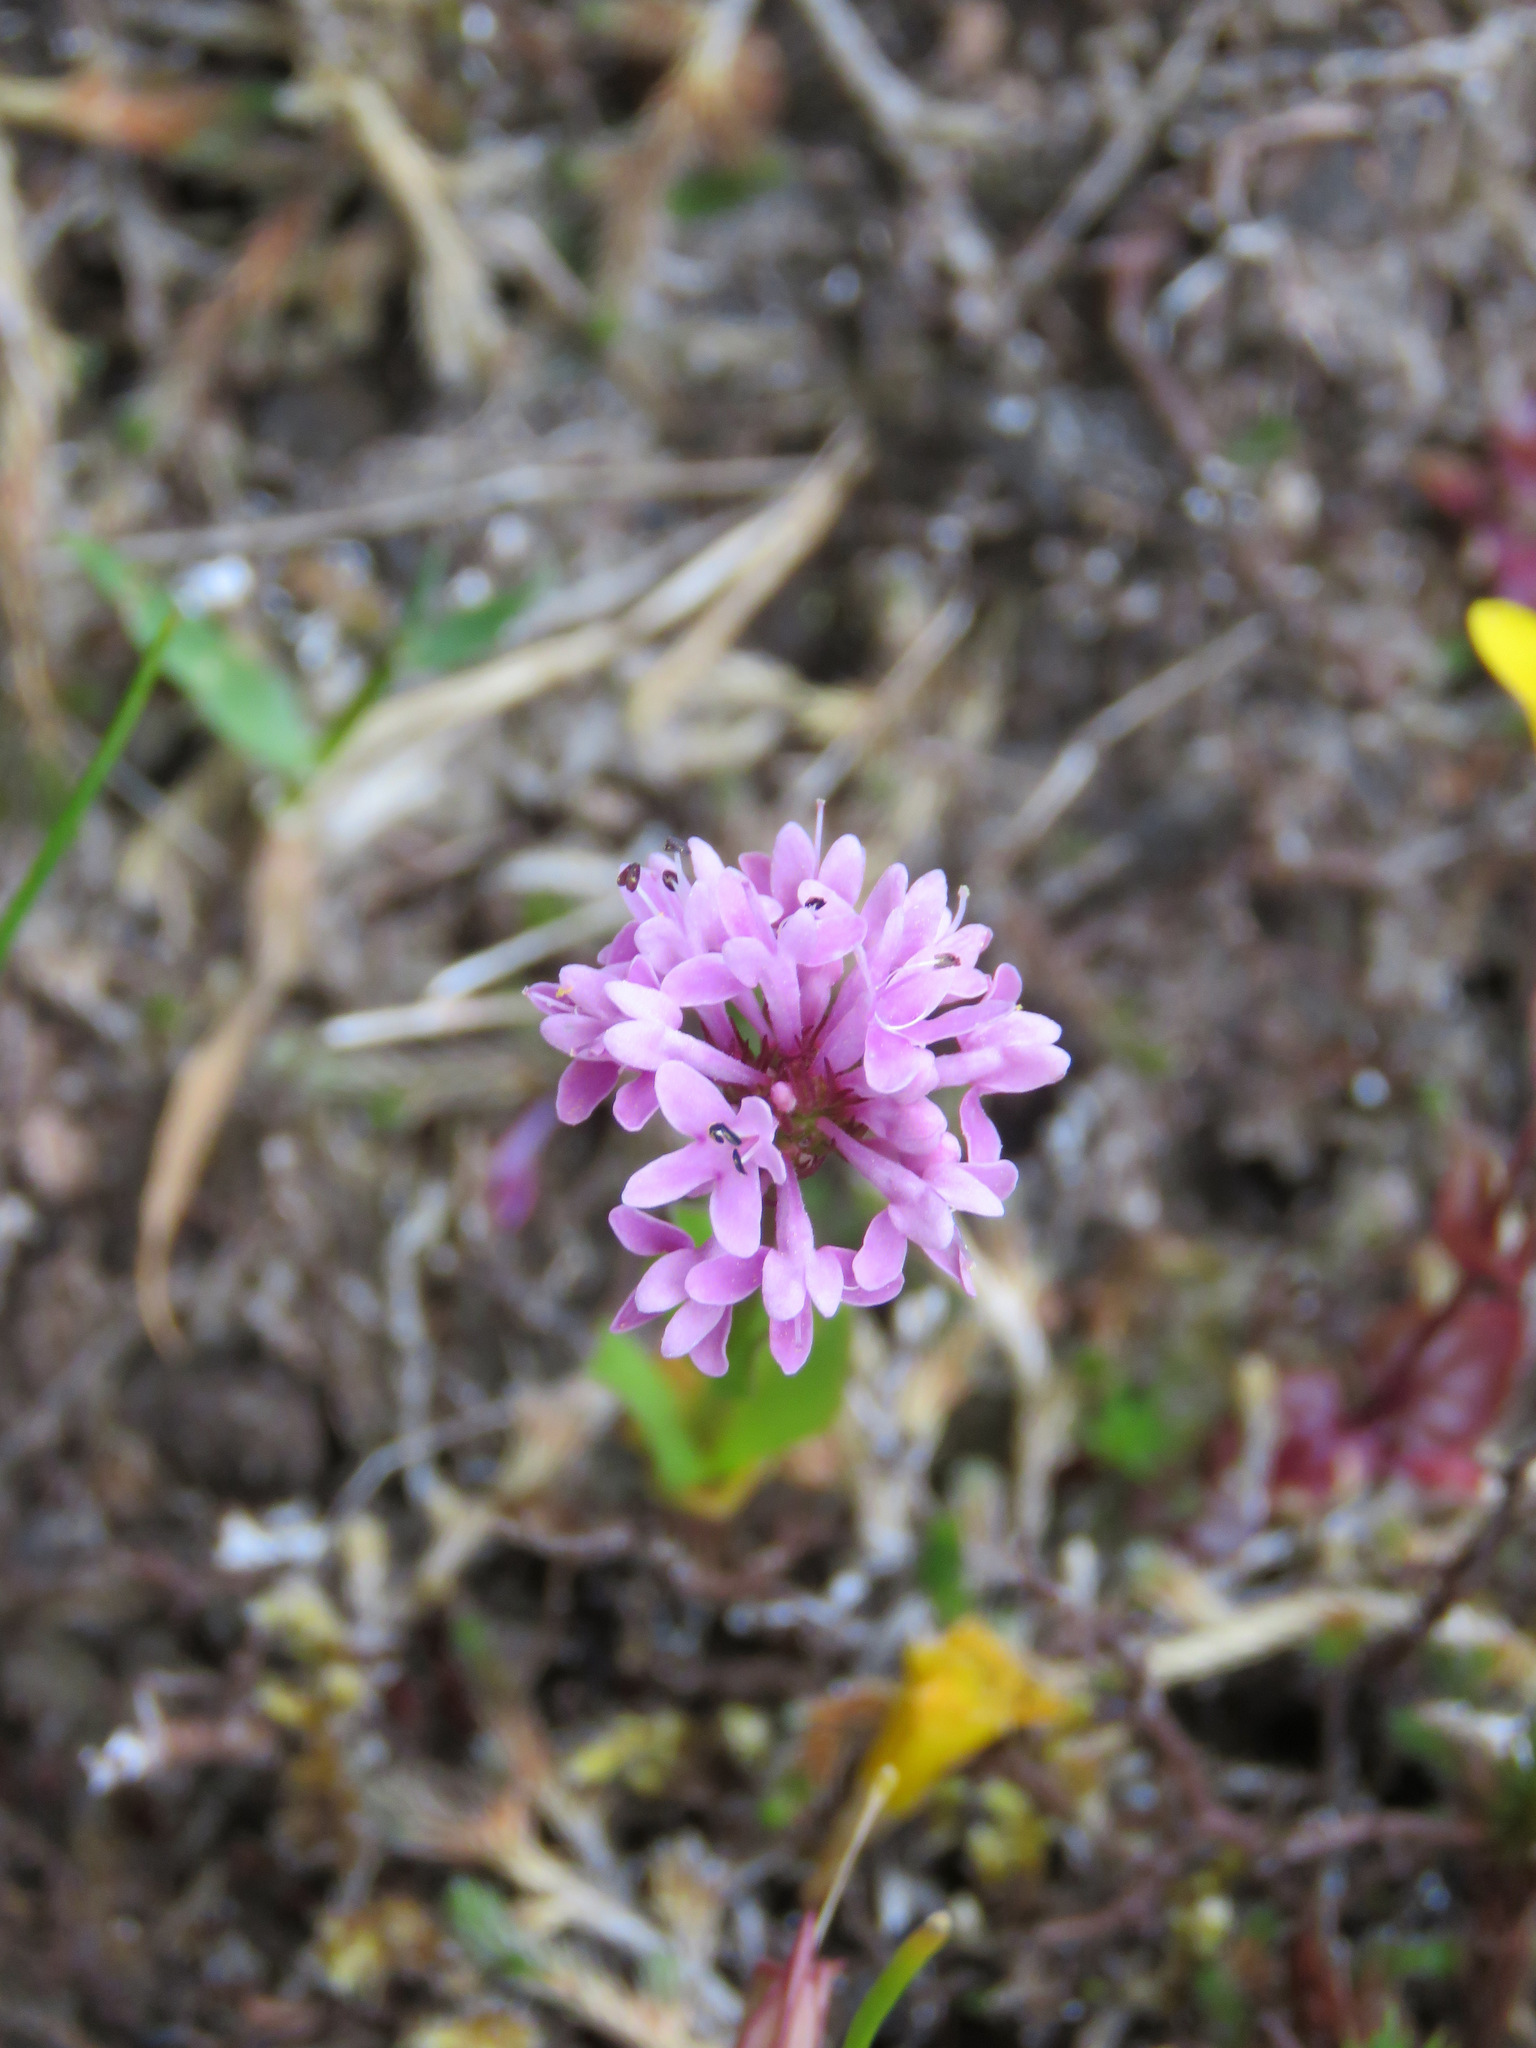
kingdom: Plantae
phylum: Tracheophyta
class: Magnoliopsida
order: Dipsacales
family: Caprifoliaceae
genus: Plectritis
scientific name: Plectritis congesta
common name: Pink plectritis
